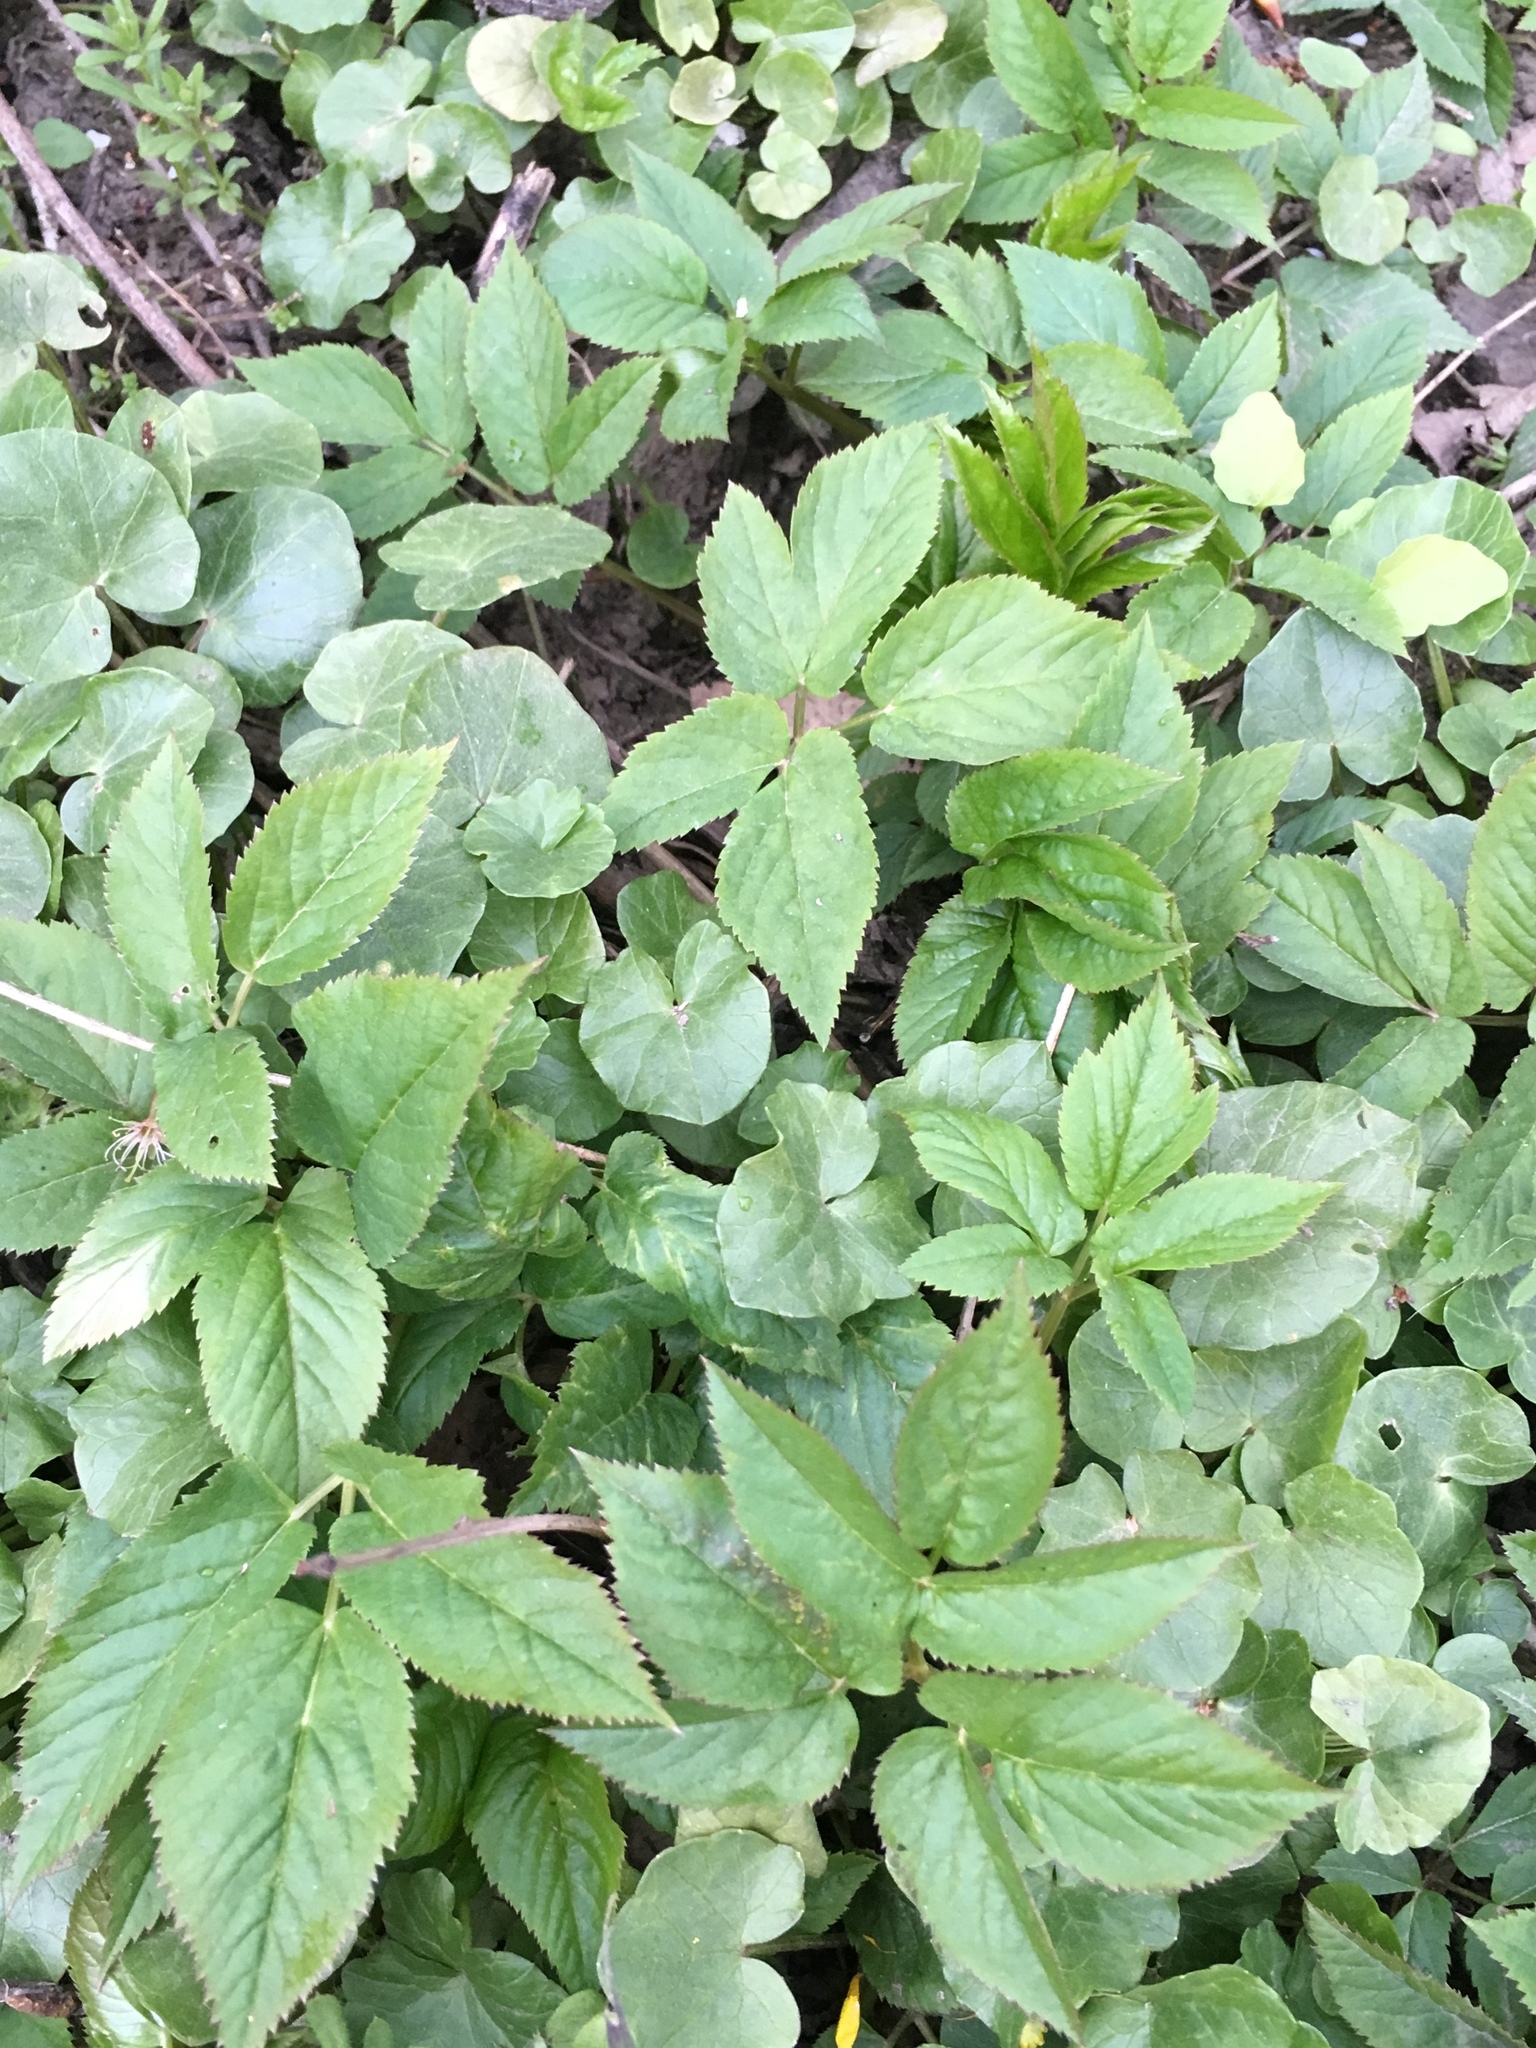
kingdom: Plantae
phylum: Tracheophyta
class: Magnoliopsida
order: Apiales
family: Apiaceae
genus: Aegopodium
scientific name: Aegopodium podagraria
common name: Ground-elder
